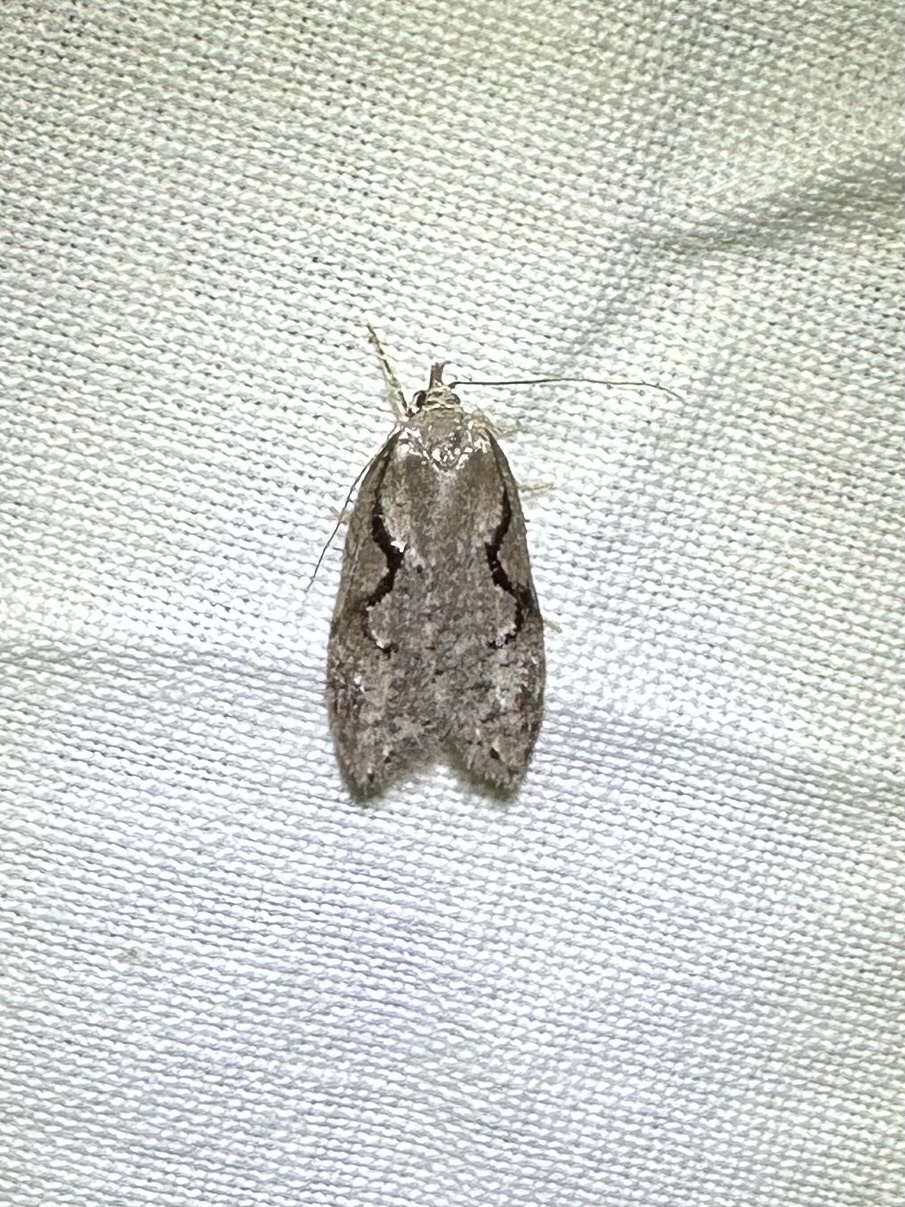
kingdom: Animalia
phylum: Arthropoda
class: Insecta
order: Lepidoptera
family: Depressariidae
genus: Semioscopis
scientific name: Semioscopis packardella
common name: Packard's concealer moth
